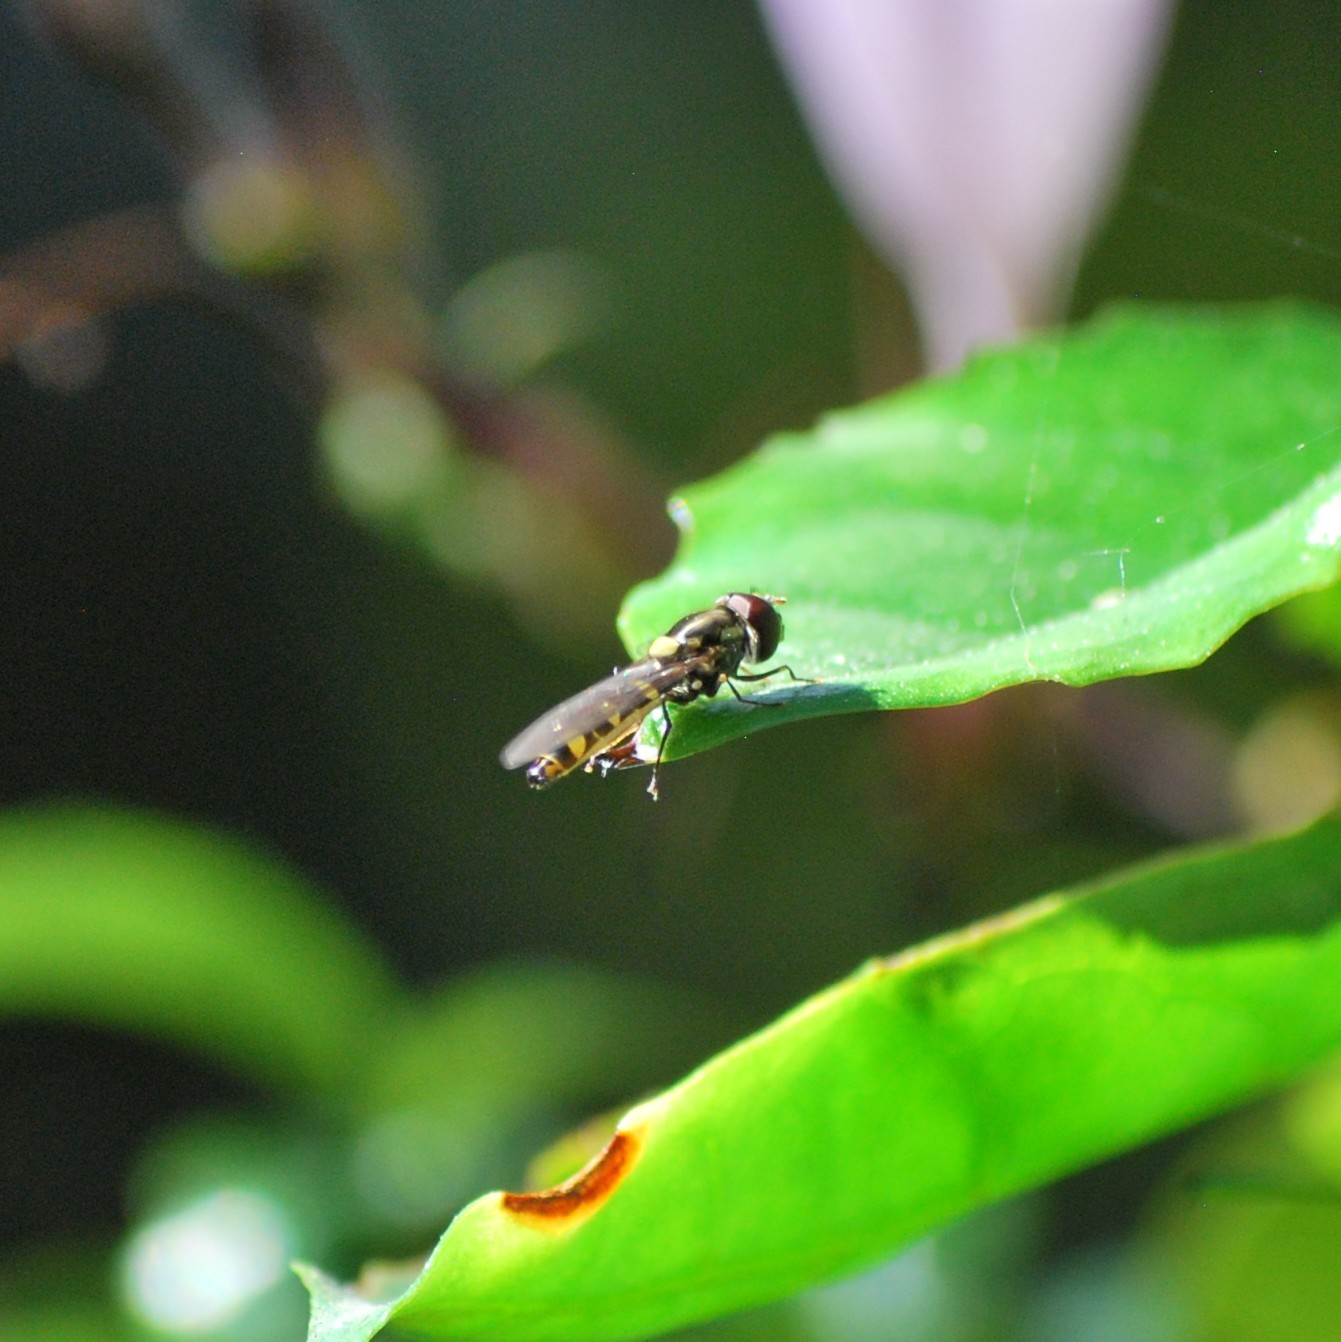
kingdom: Animalia
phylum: Arthropoda
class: Insecta
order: Diptera
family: Syrphidae
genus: Fazia
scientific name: Fazia micrura
